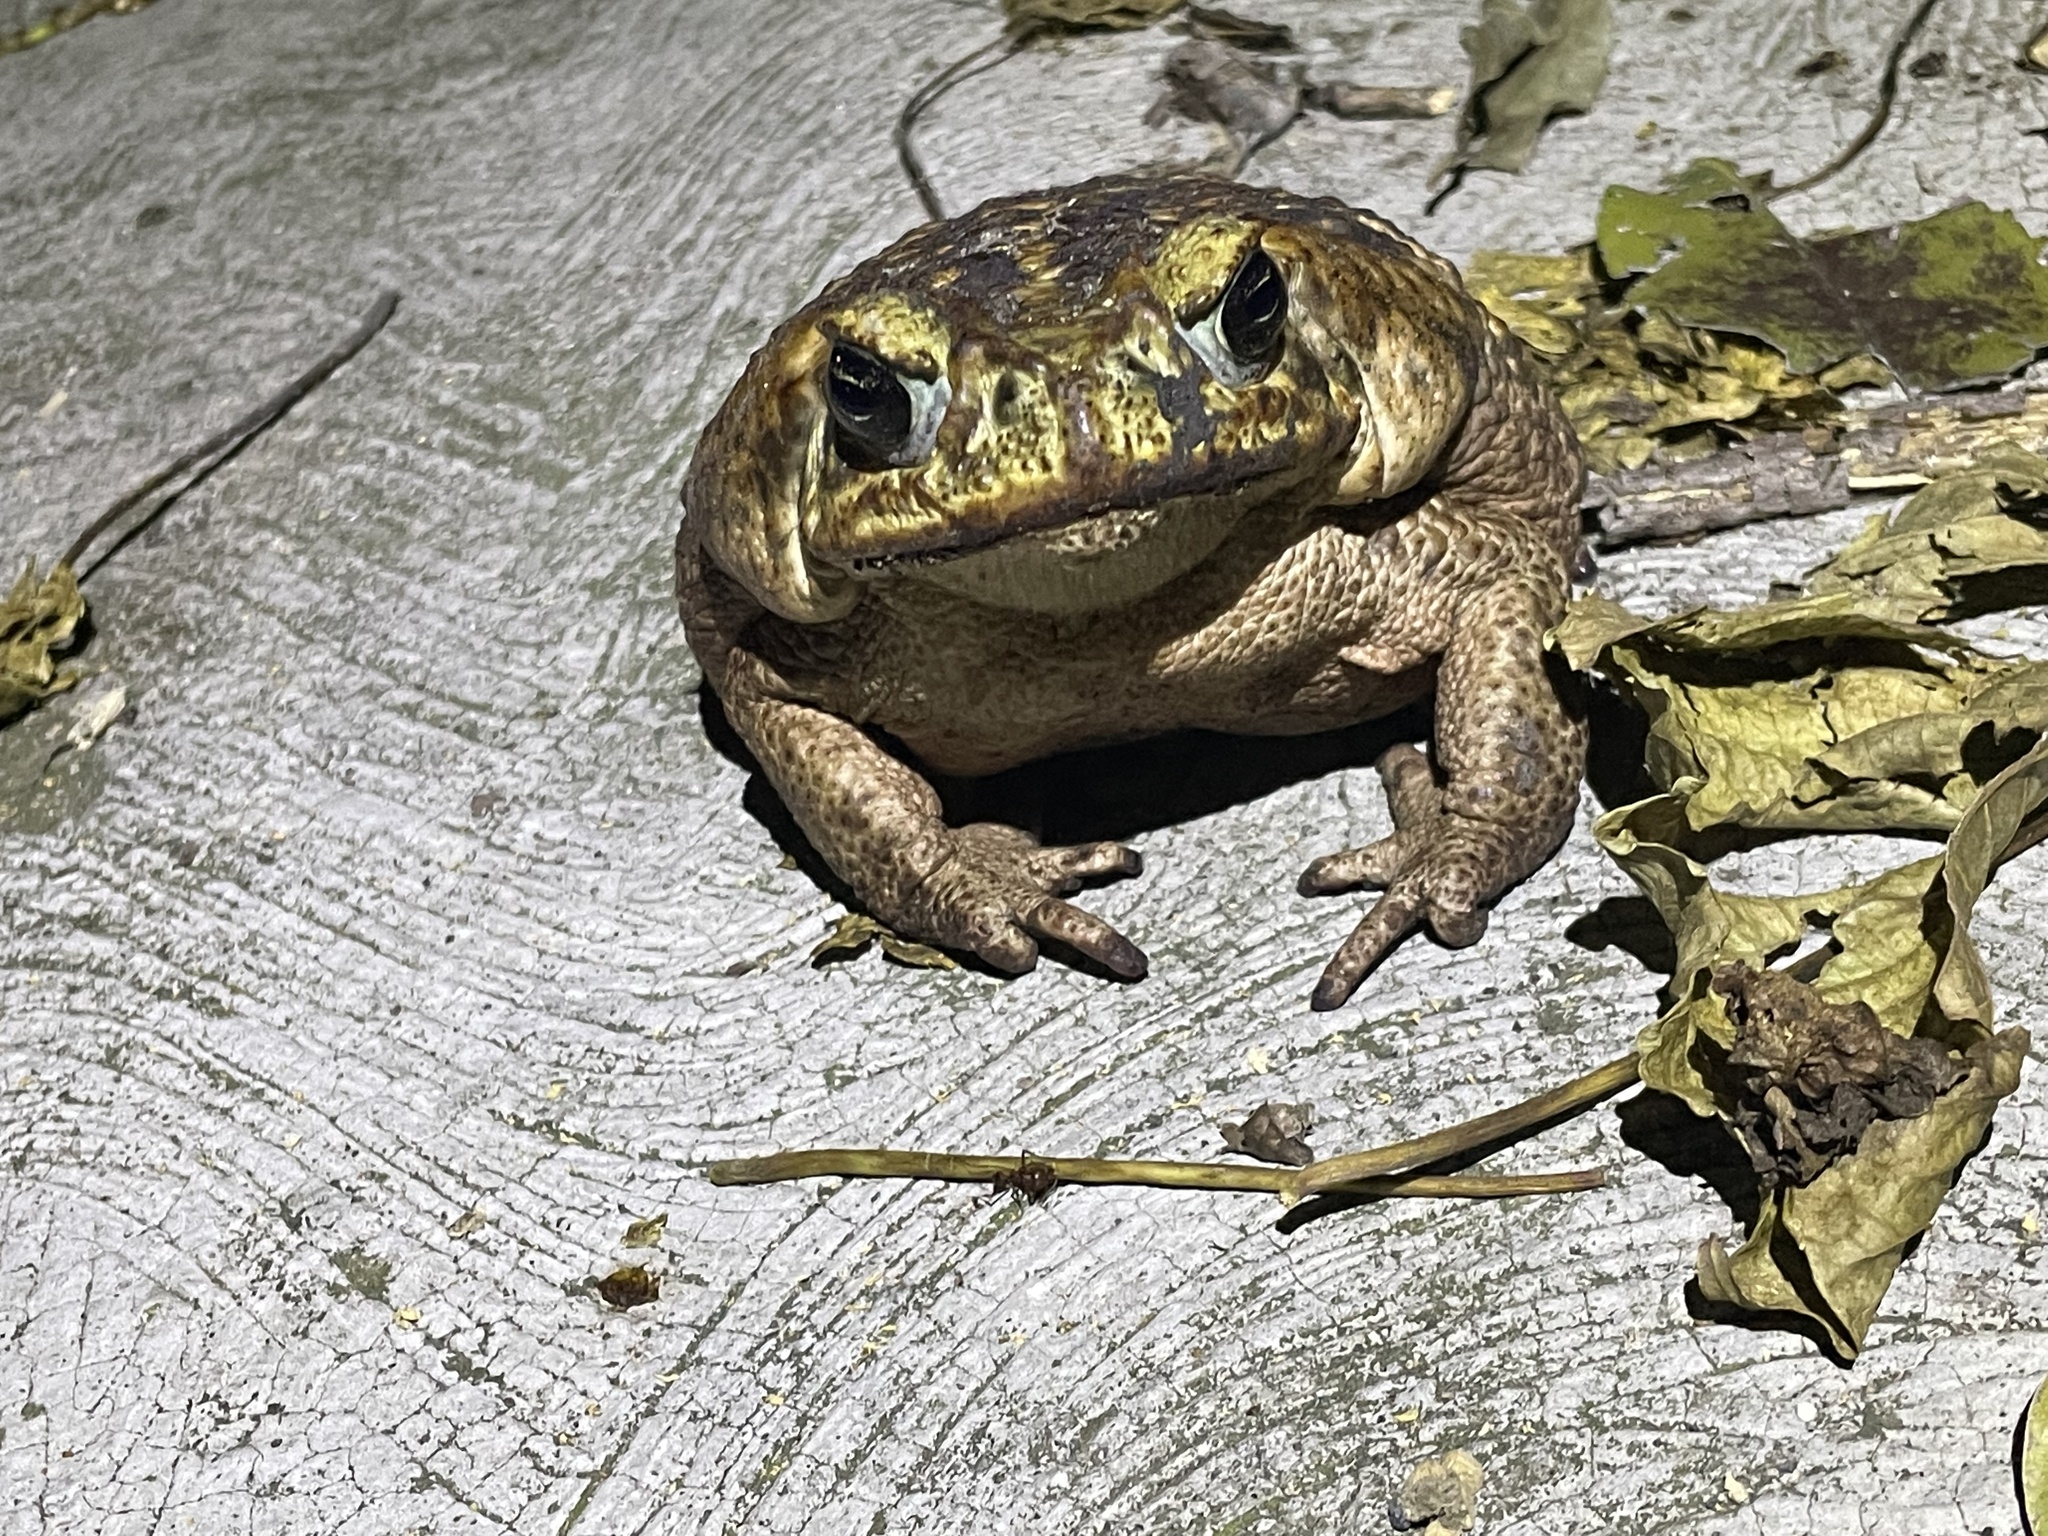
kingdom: Animalia
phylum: Chordata
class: Amphibia
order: Anura
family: Bufonidae
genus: Rhinella
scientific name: Rhinella horribilis
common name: Mesoamerican cane toad
